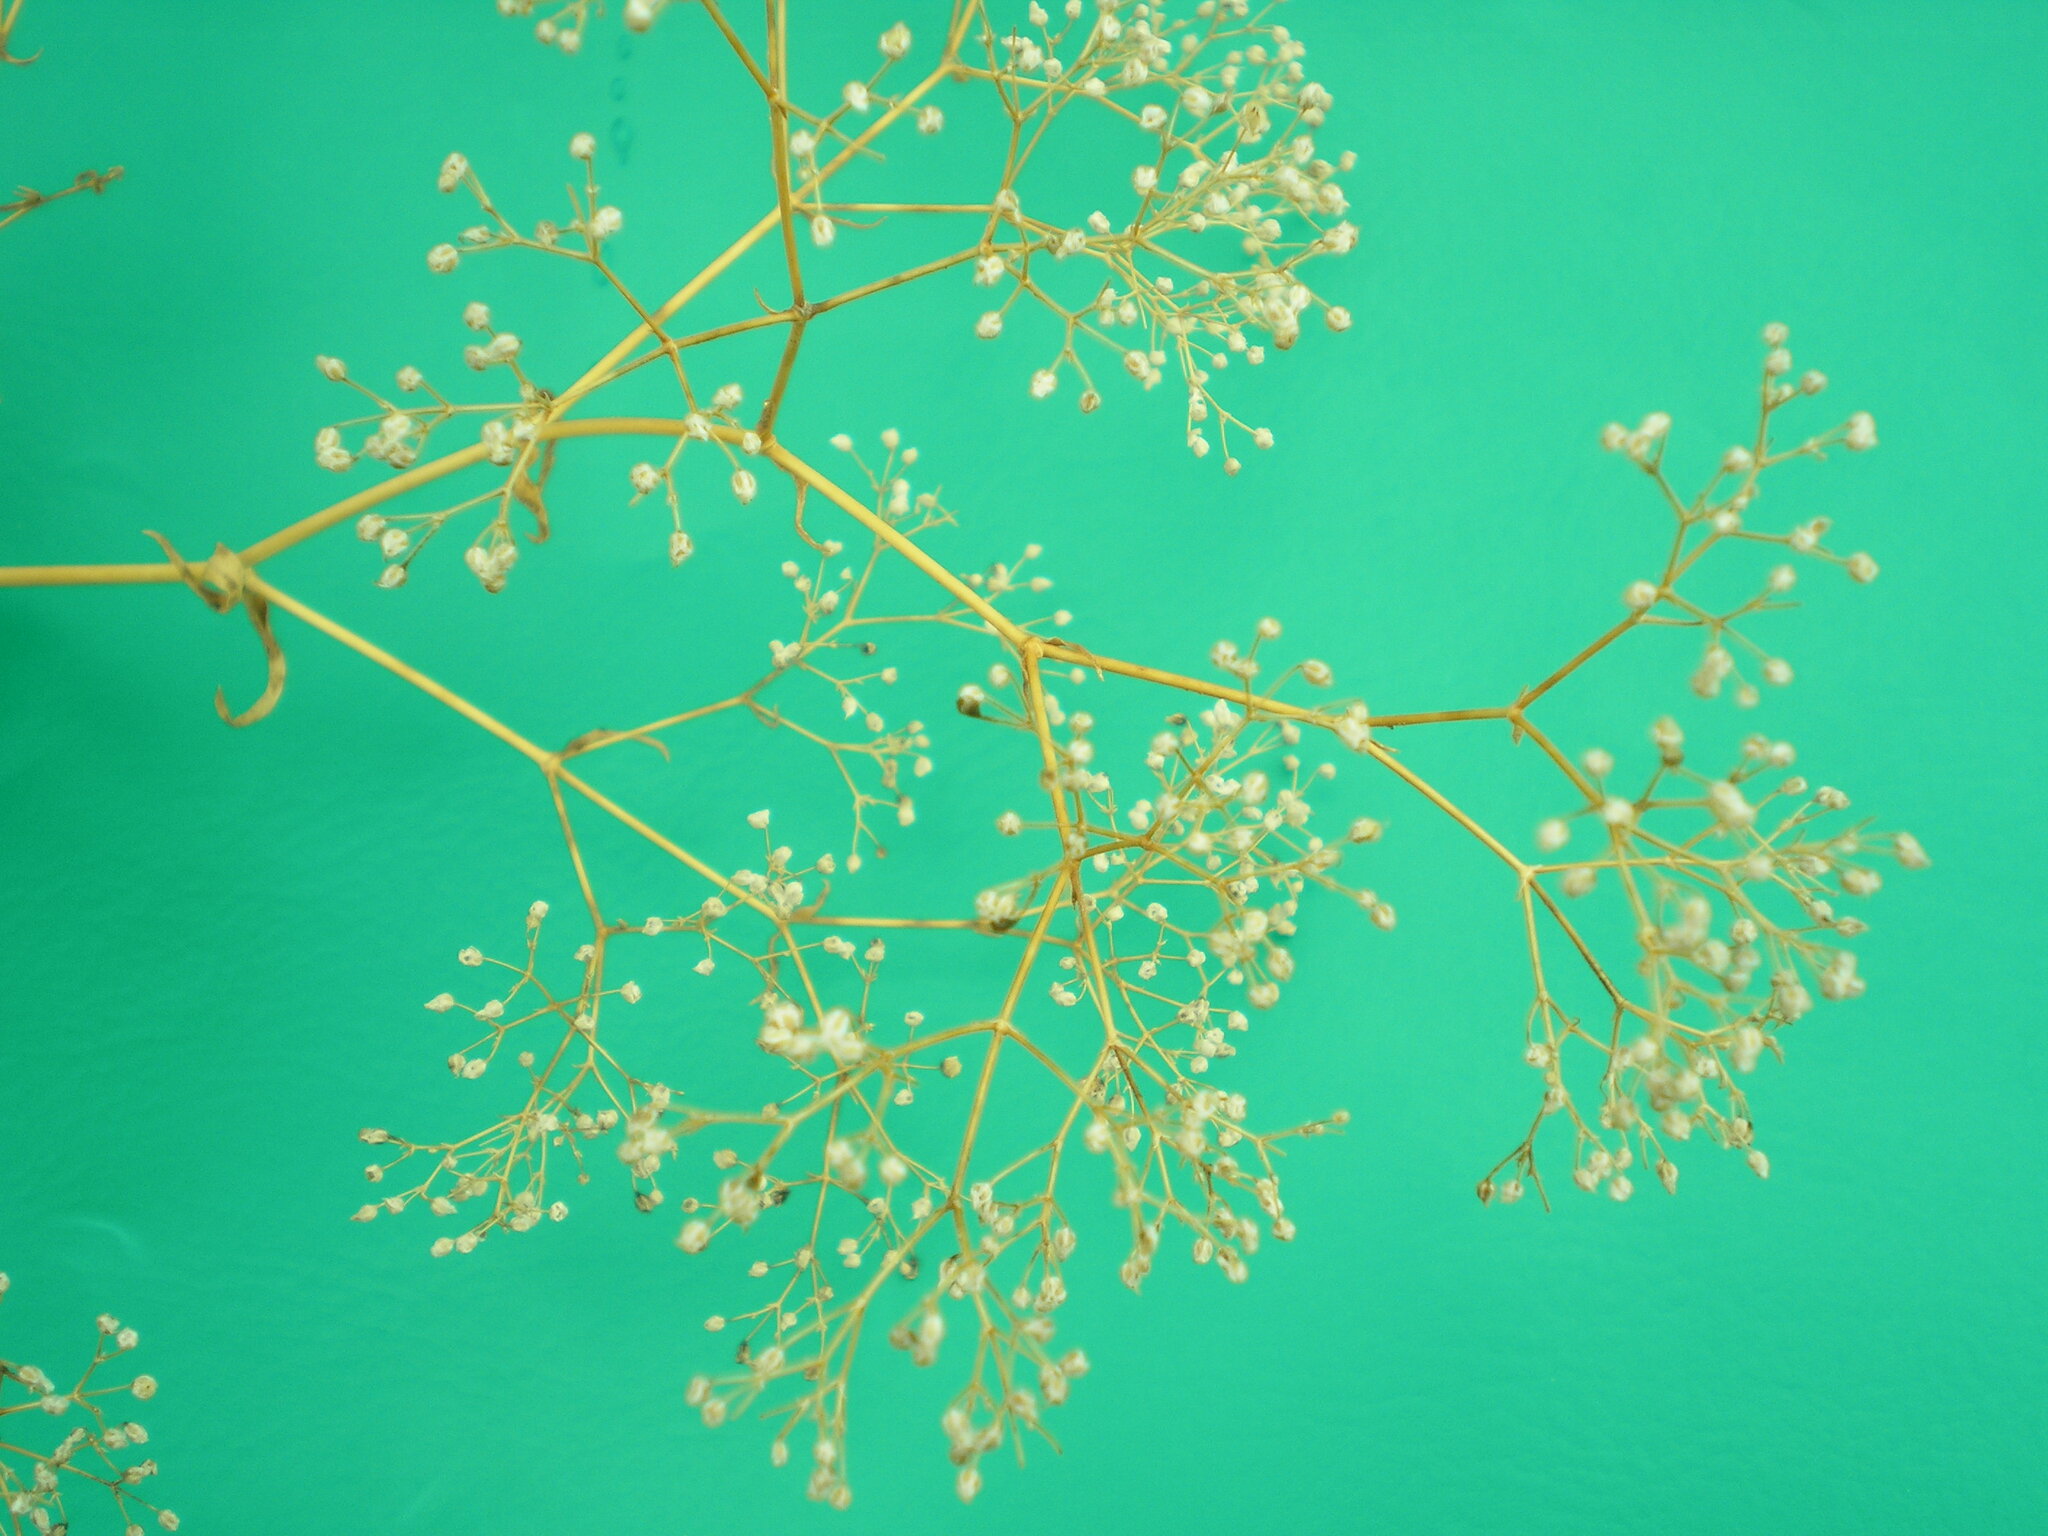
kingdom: Plantae
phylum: Tracheophyta
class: Magnoliopsida
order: Caryophyllales
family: Caryophyllaceae
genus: Gypsophila
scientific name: Gypsophila paniculata
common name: Baby's-breath
